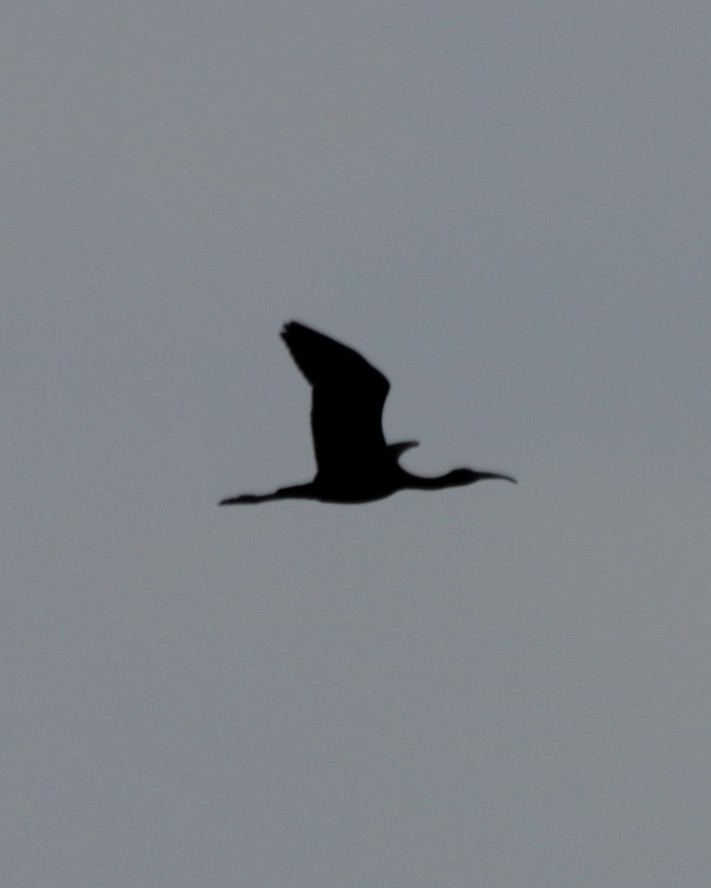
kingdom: Animalia
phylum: Chordata
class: Aves
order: Pelecaniformes
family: Threskiornithidae
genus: Plegadis
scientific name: Plegadis falcinellus
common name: Glossy ibis
